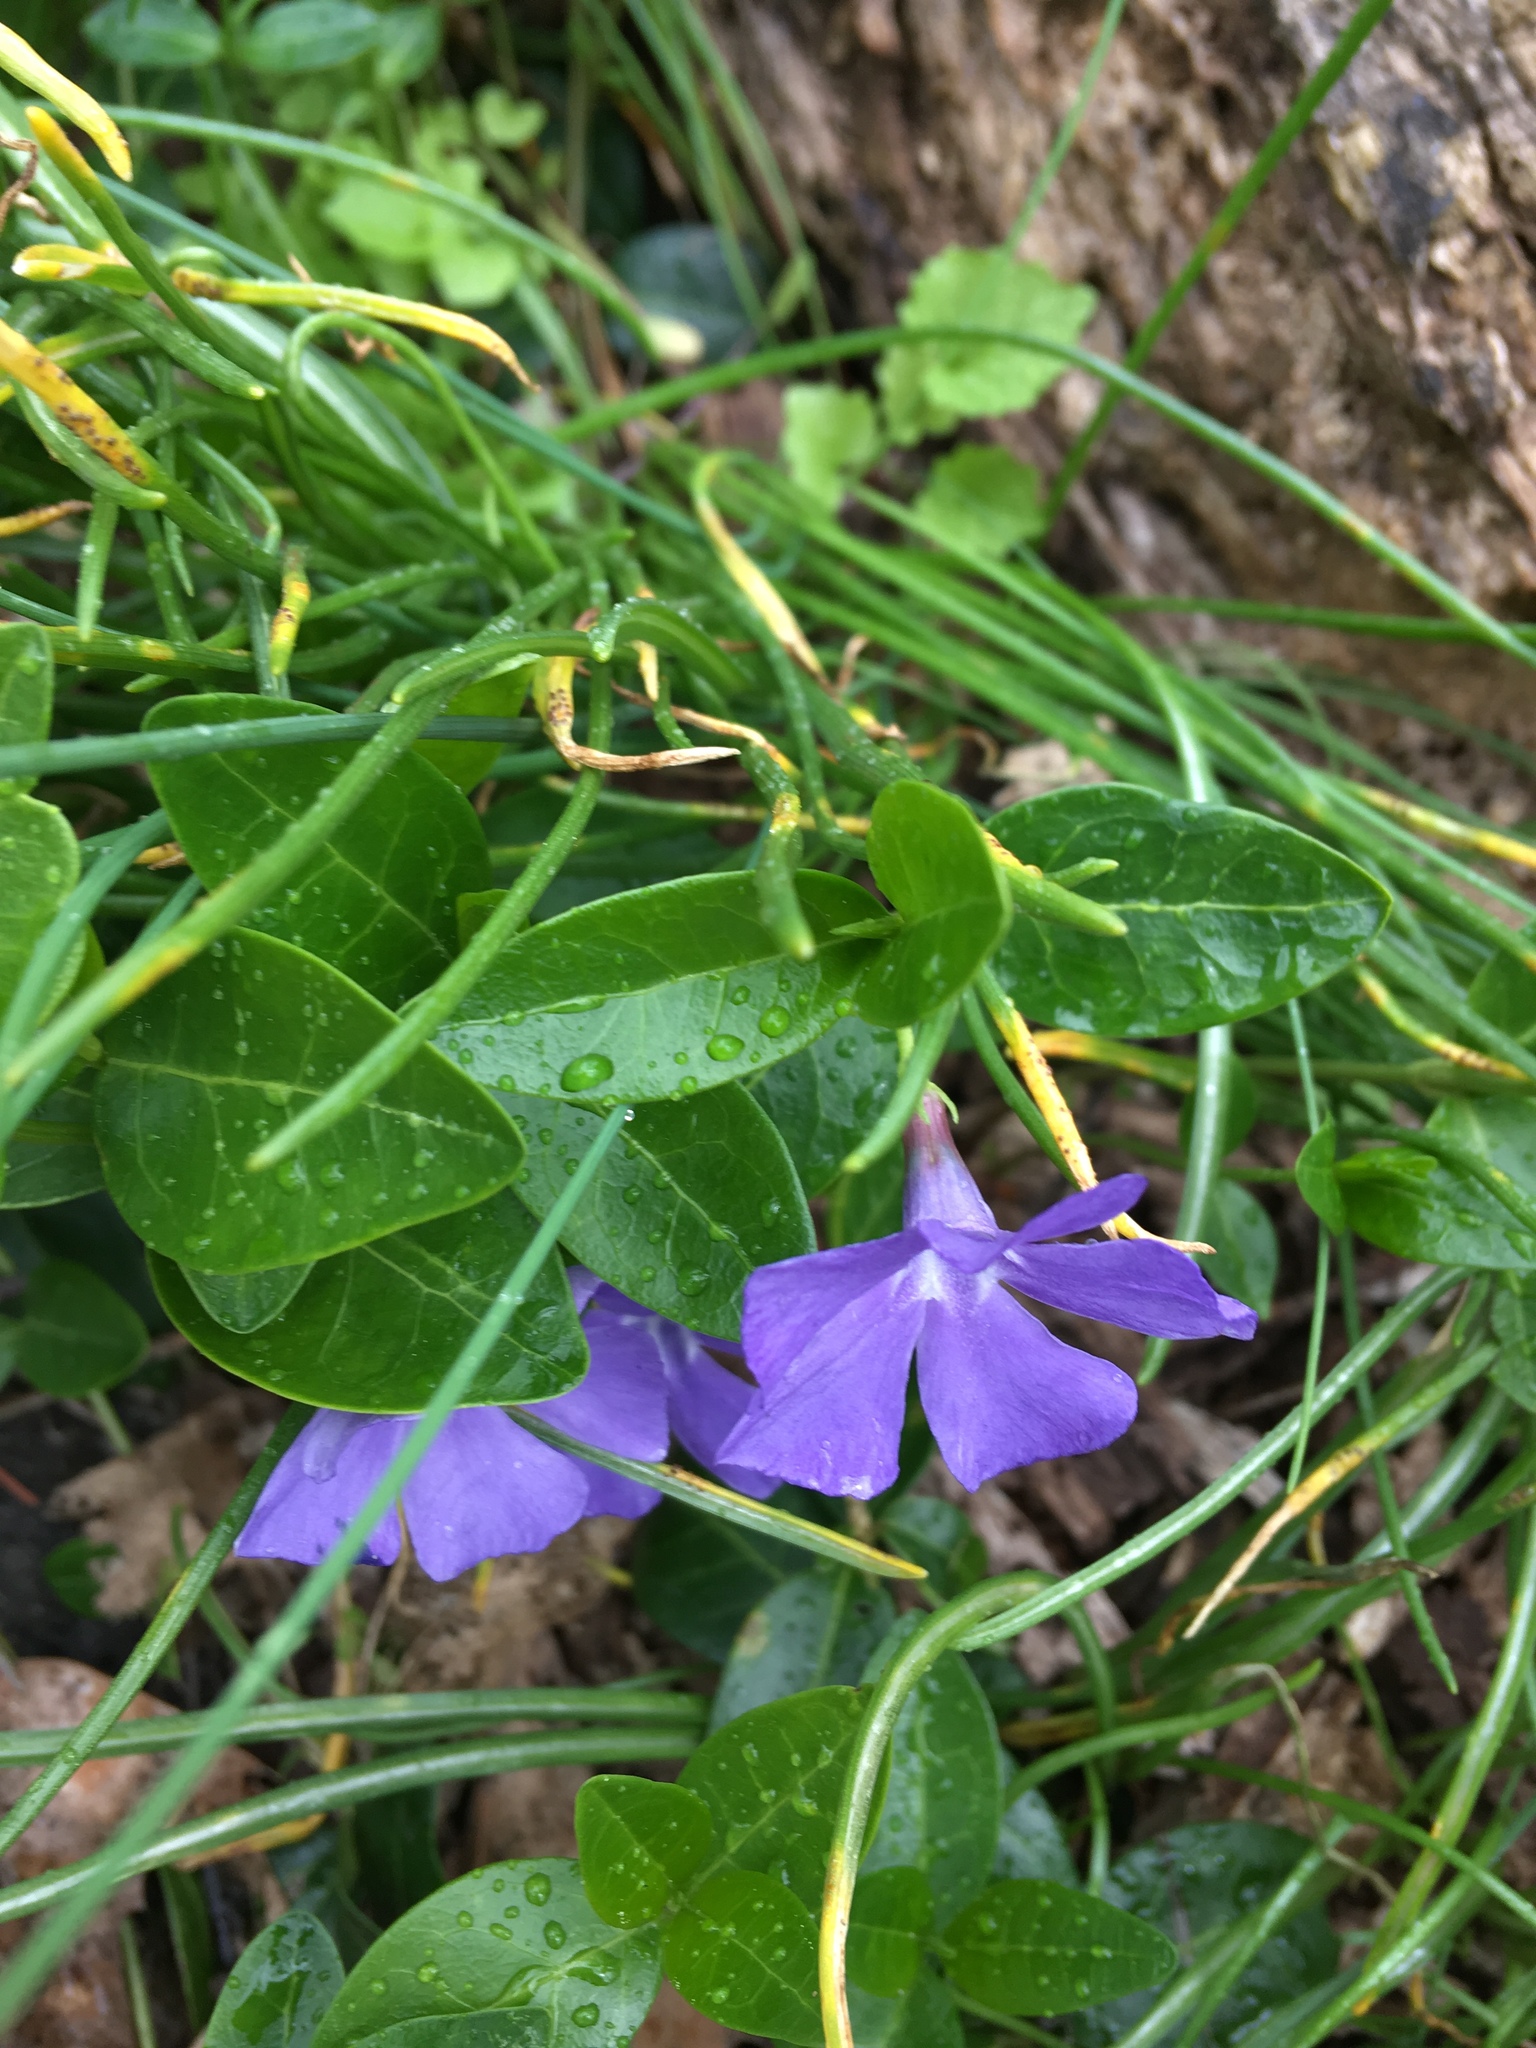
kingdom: Plantae
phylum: Tracheophyta
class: Magnoliopsida
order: Gentianales
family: Apocynaceae
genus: Vinca
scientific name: Vinca minor
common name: Lesser periwinkle
